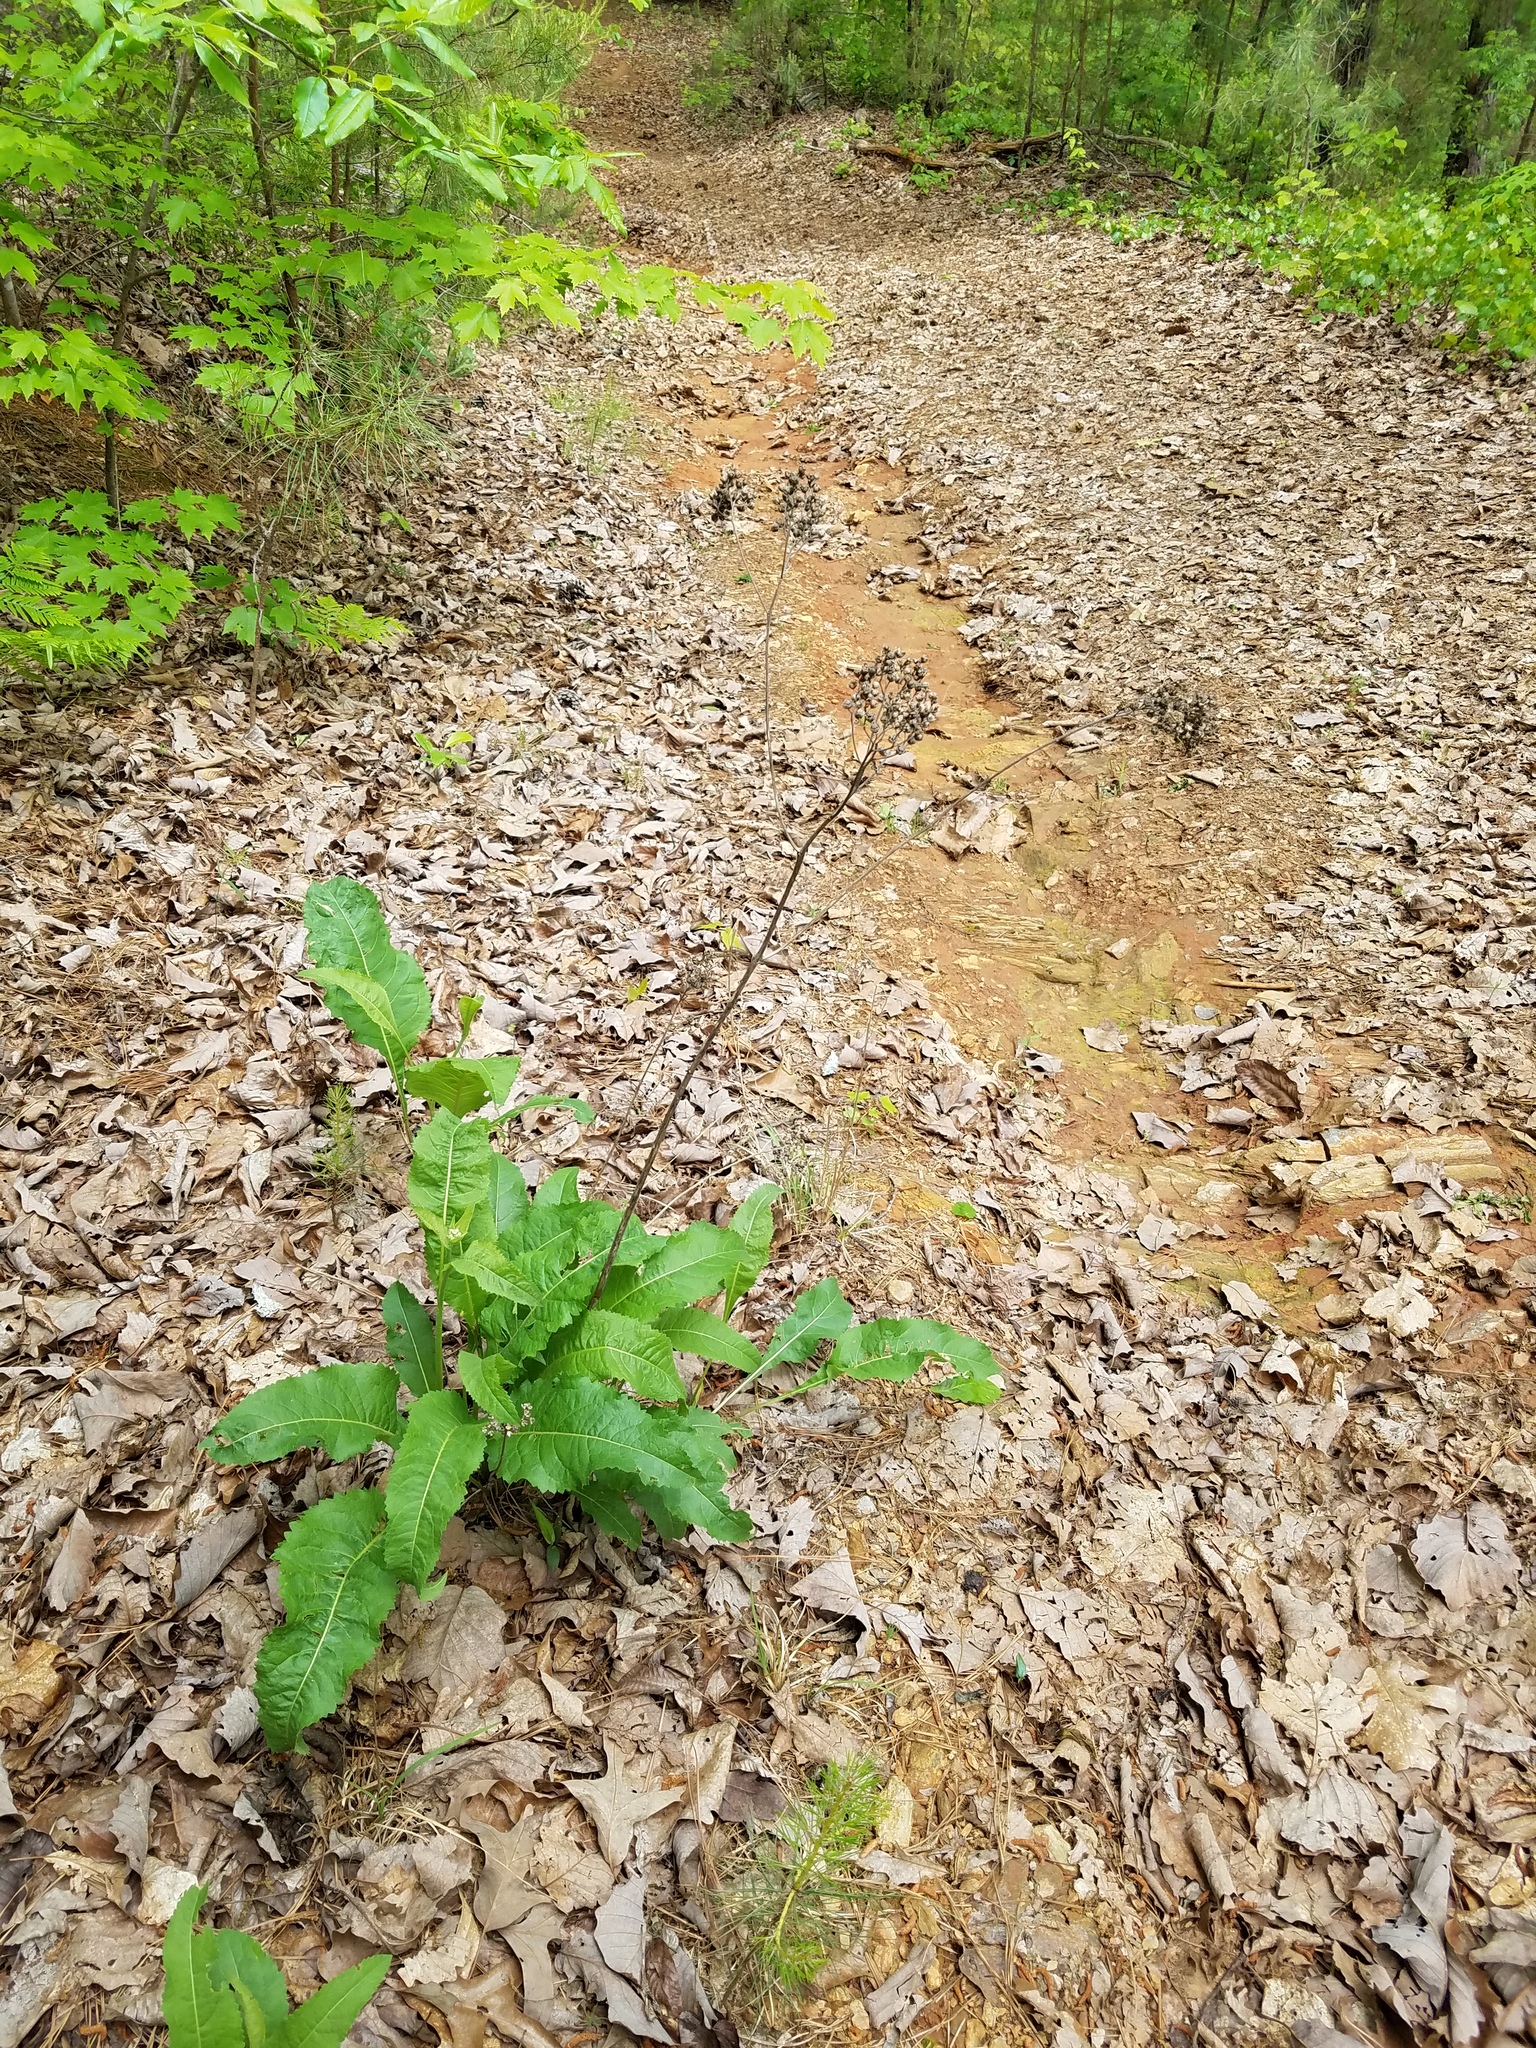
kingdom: Plantae
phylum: Tracheophyta
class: Magnoliopsida
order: Asterales
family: Asteraceae
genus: Parthenium
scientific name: Parthenium integrifolium
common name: American feverfew
